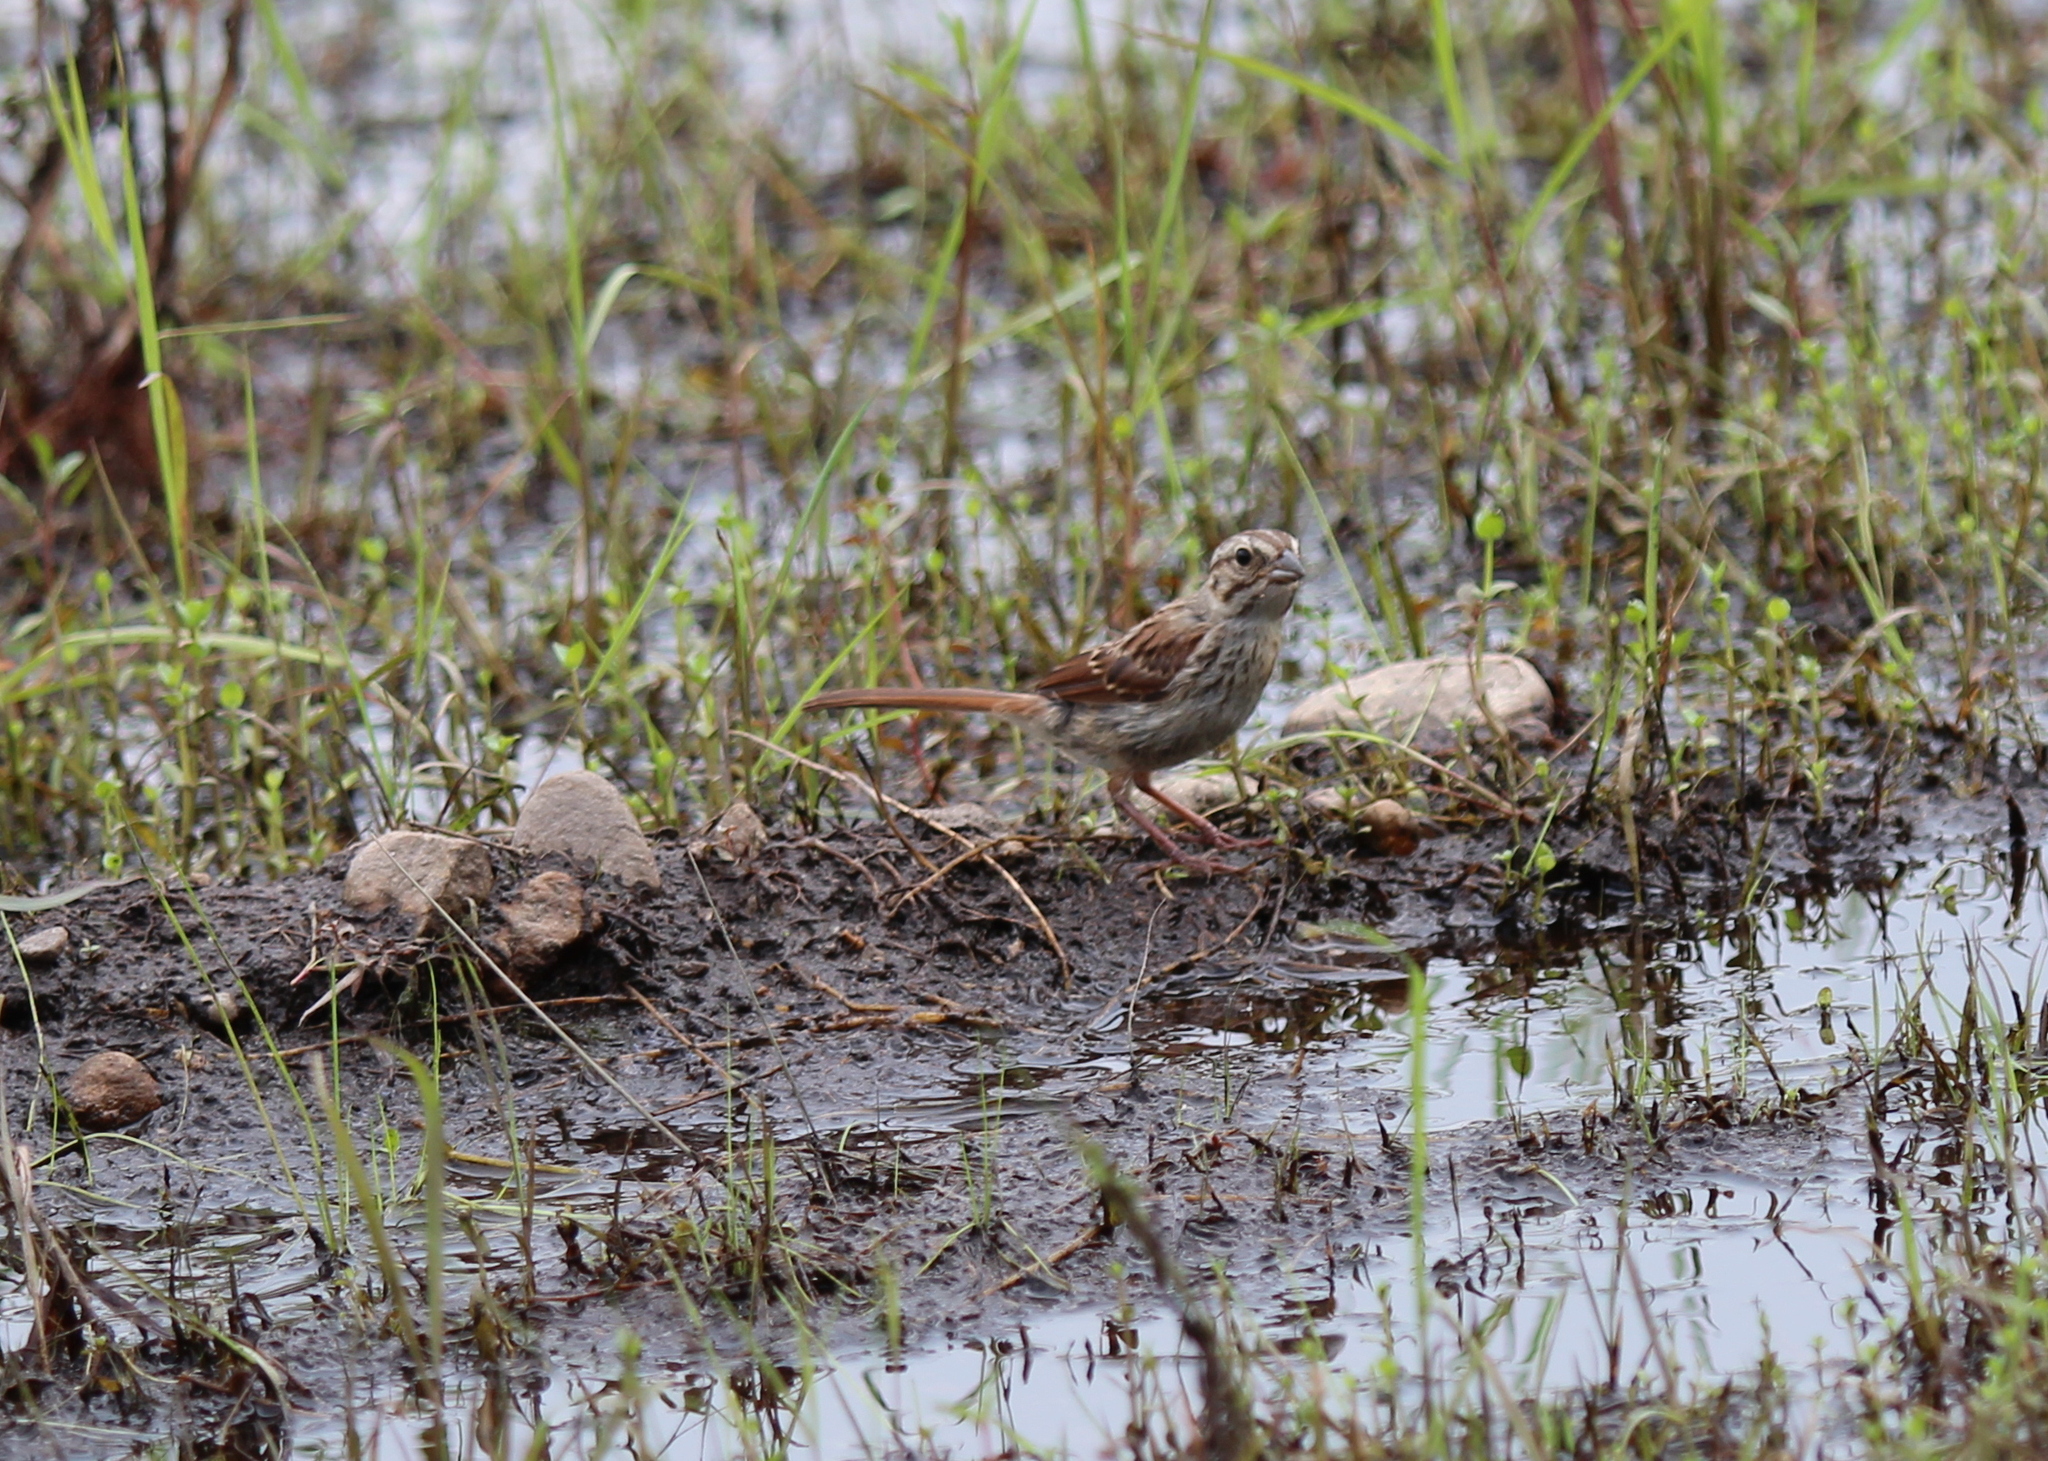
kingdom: Animalia
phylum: Chordata
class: Aves
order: Passeriformes
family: Passerellidae
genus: Melospiza
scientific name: Melospiza melodia
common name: Song sparrow
